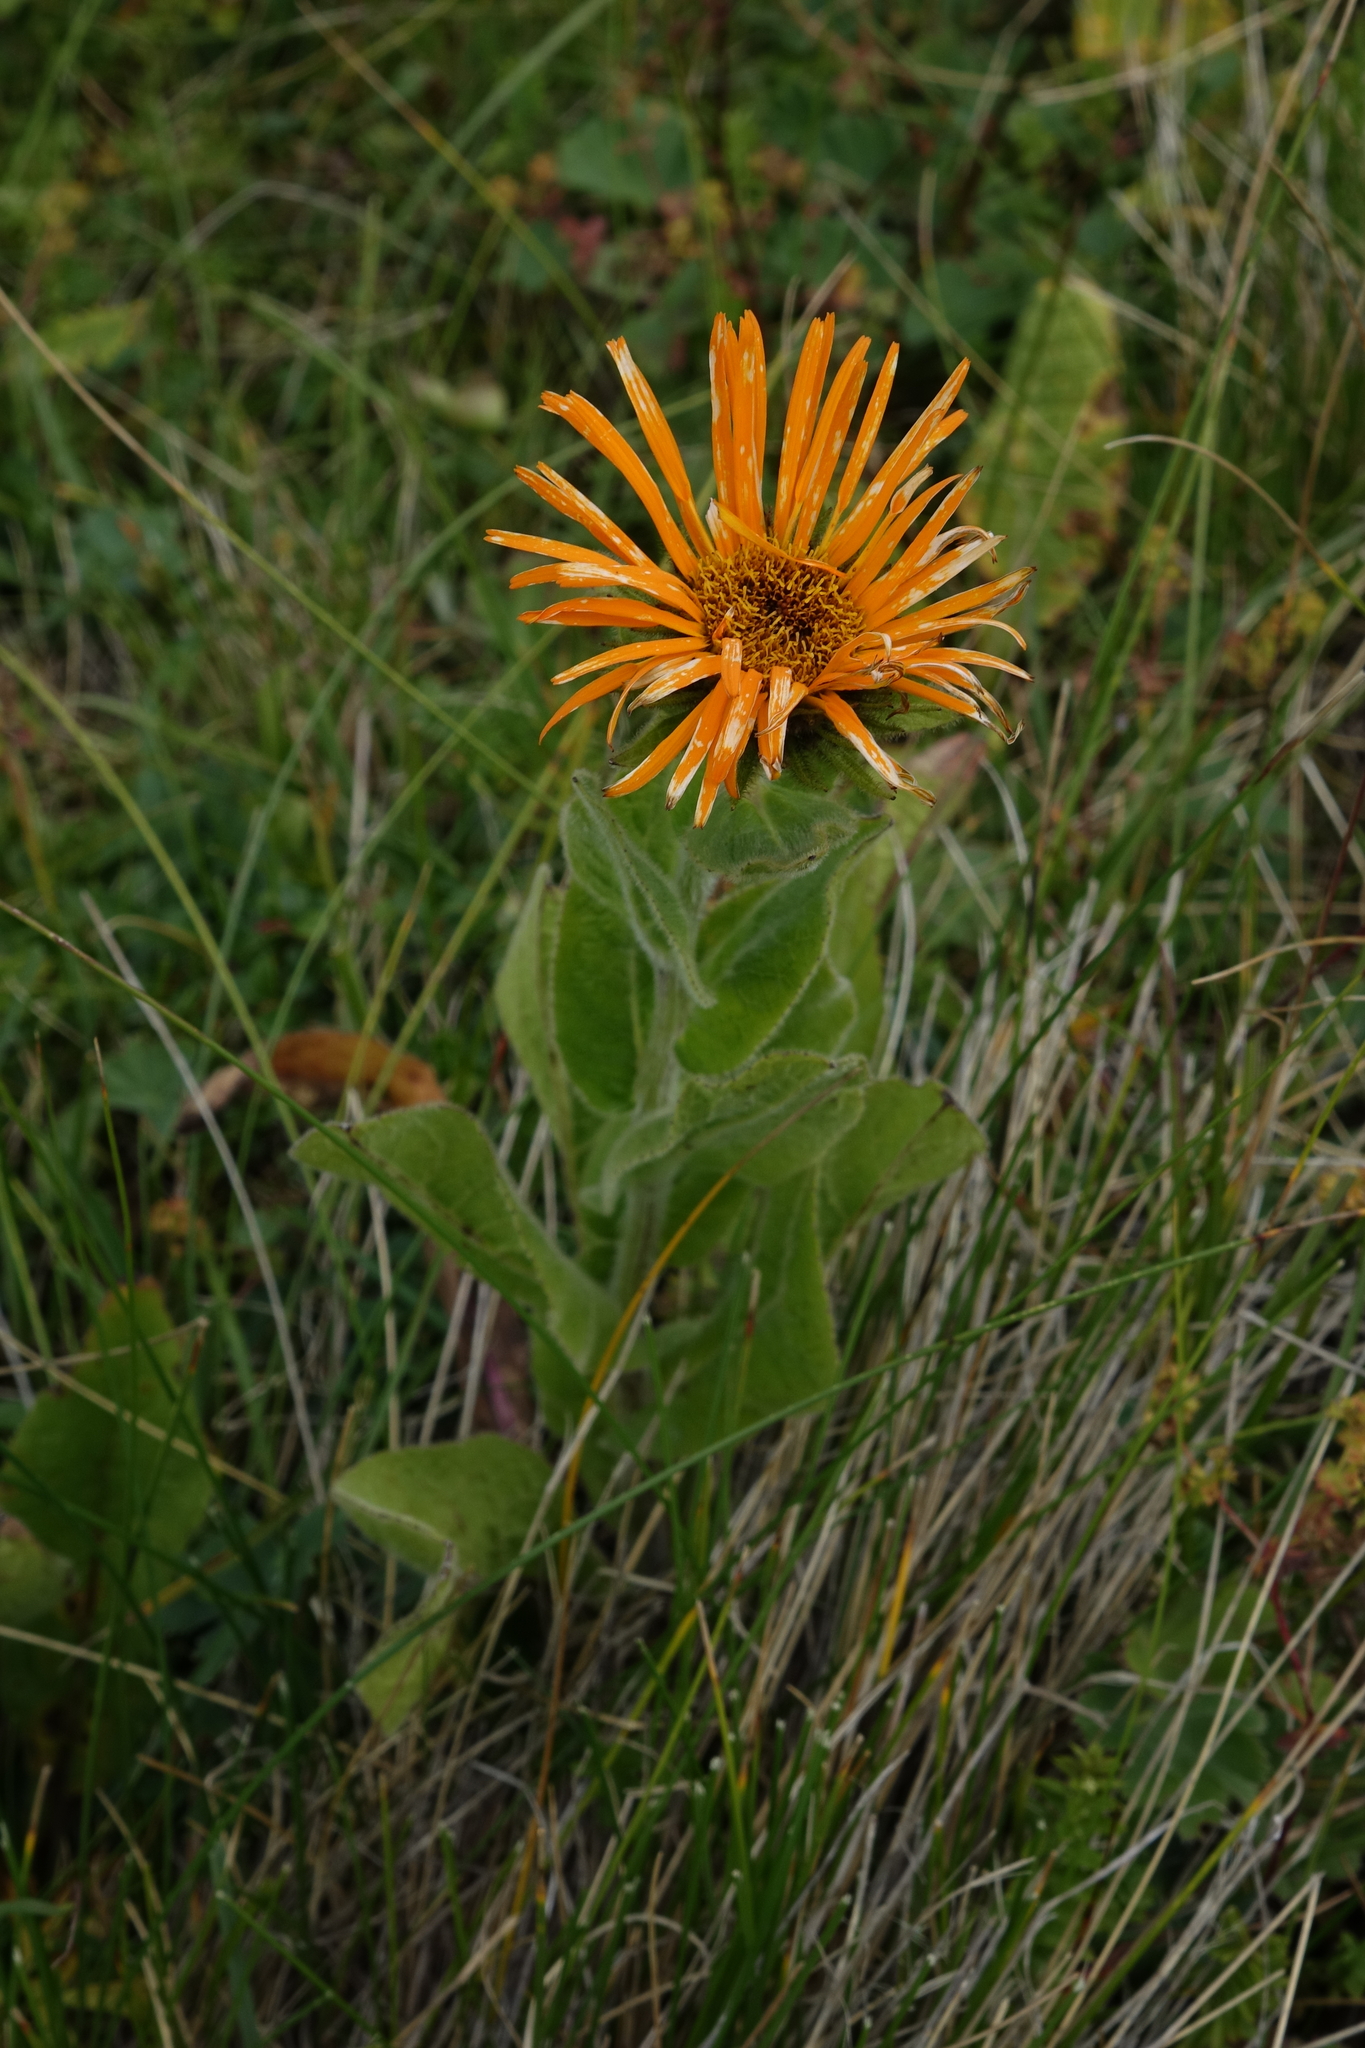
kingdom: Plantae
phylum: Tracheophyta
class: Magnoliopsida
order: Asterales
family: Asteraceae
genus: Pentanema
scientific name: Pentanema orientale
